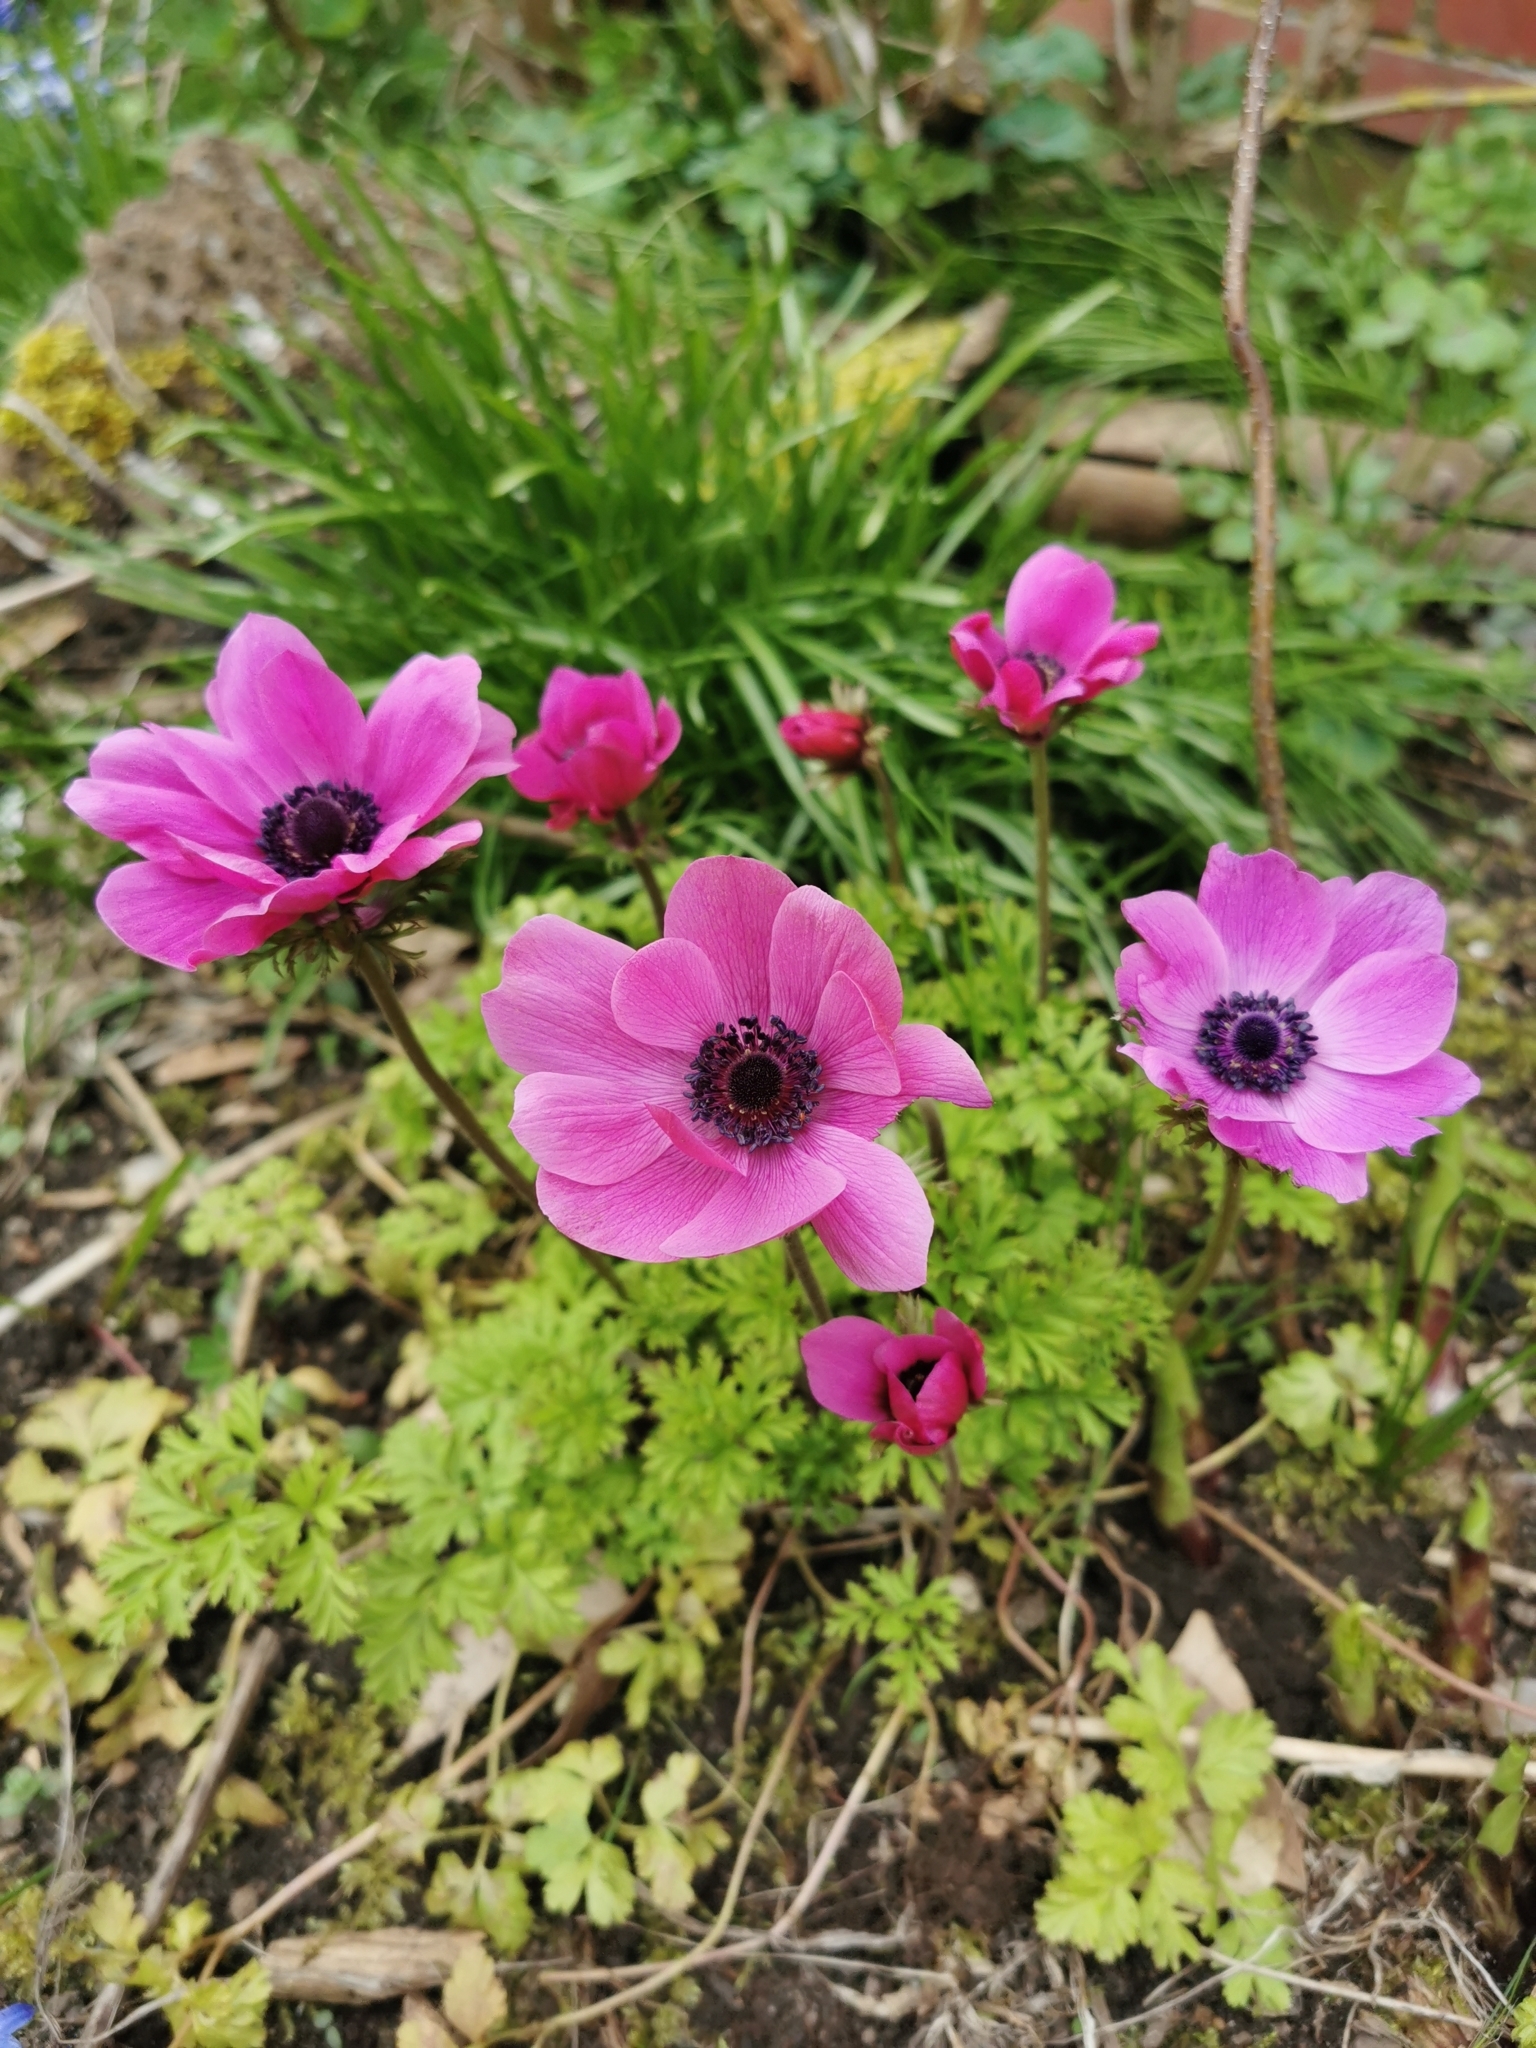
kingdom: Plantae
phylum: Tracheophyta
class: Magnoliopsida
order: Ranunculales
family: Ranunculaceae
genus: Anemone
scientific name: Anemone coronaria
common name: Poppy anemone
